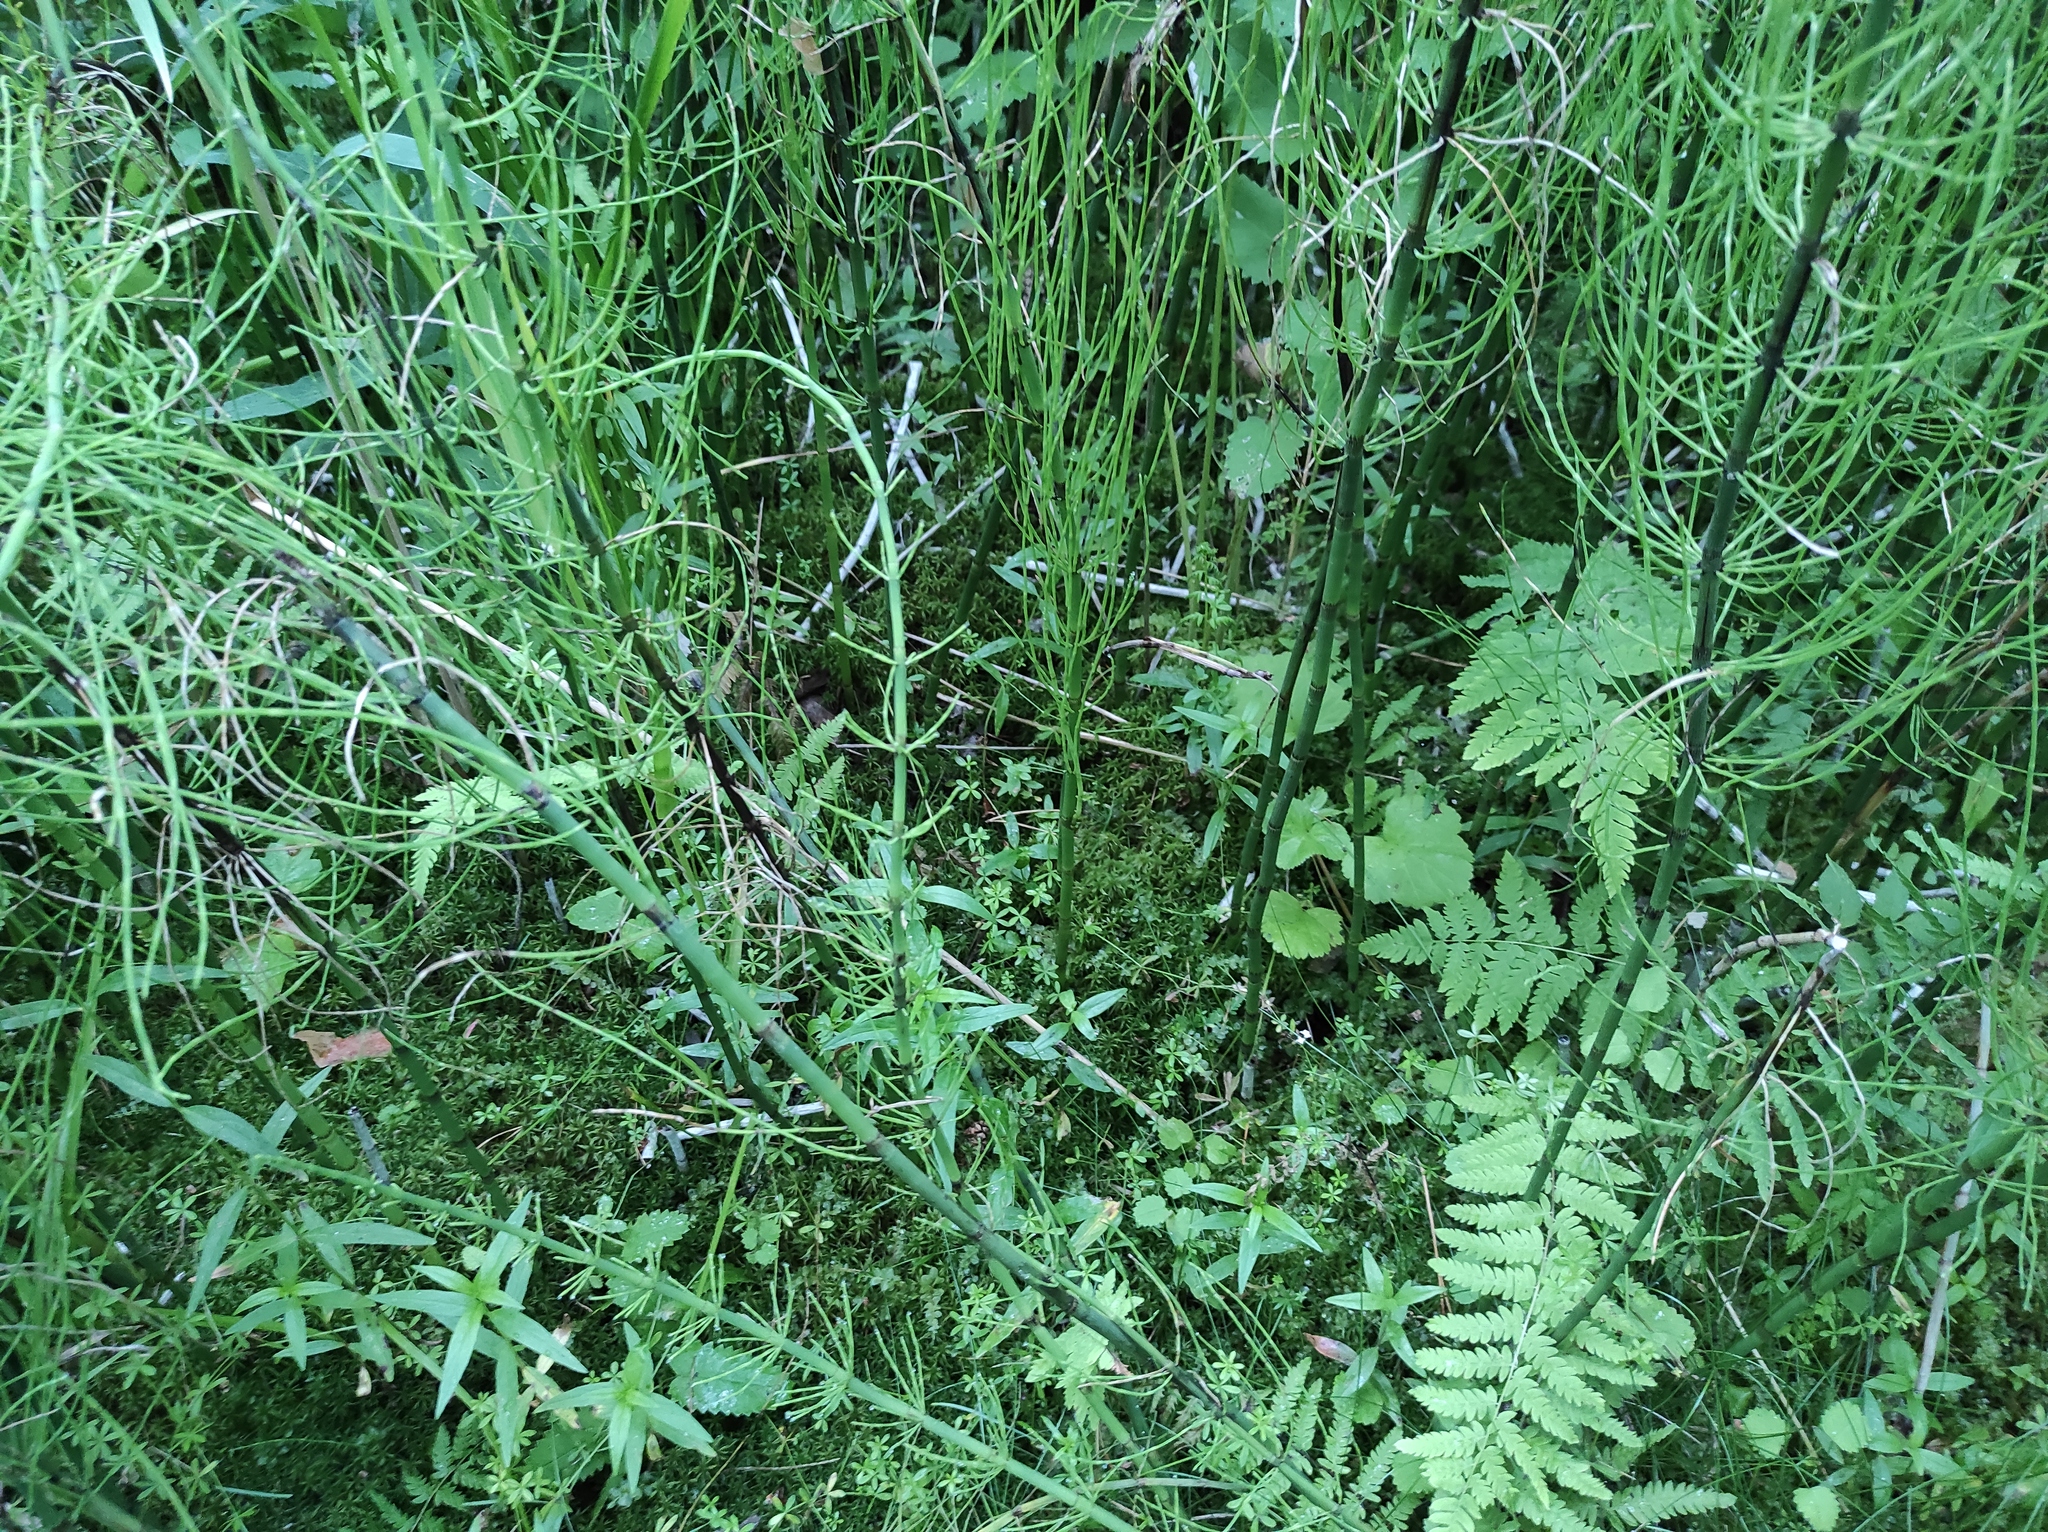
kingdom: Plantae
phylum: Tracheophyta
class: Polypodiopsida
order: Equisetales
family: Equisetaceae
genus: Equisetum
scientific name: Equisetum fluviatile
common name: Water horsetail
